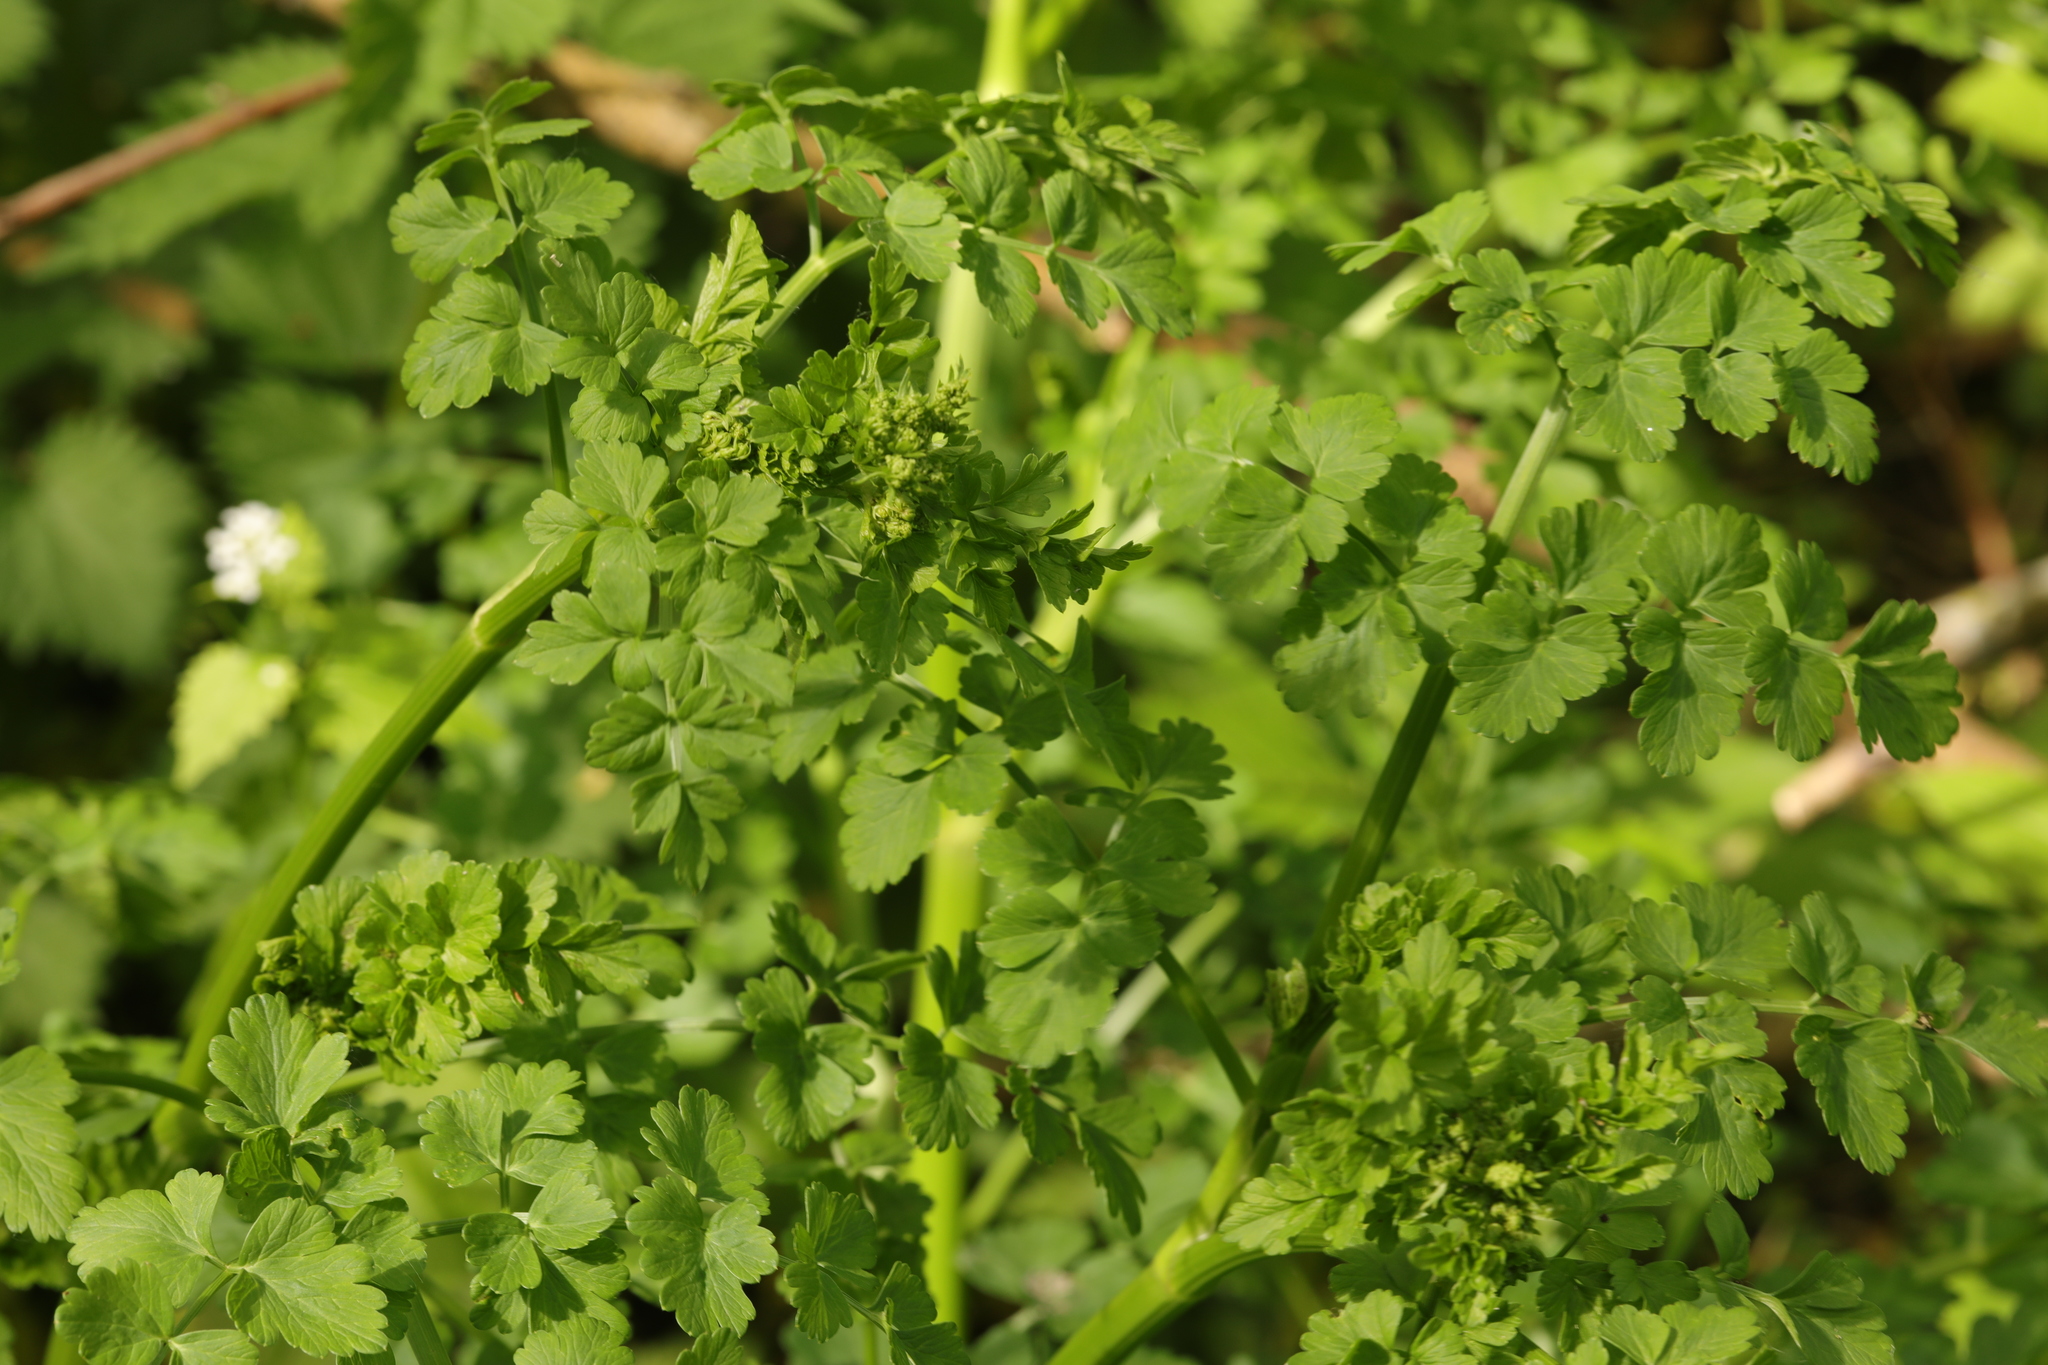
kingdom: Plantae
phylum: Tracheophyta
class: Magnoliopsida
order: Apiales
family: Apiaceae
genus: Oenanthe
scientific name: Oenanthe crocata
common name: Hemlock water-dropwort
